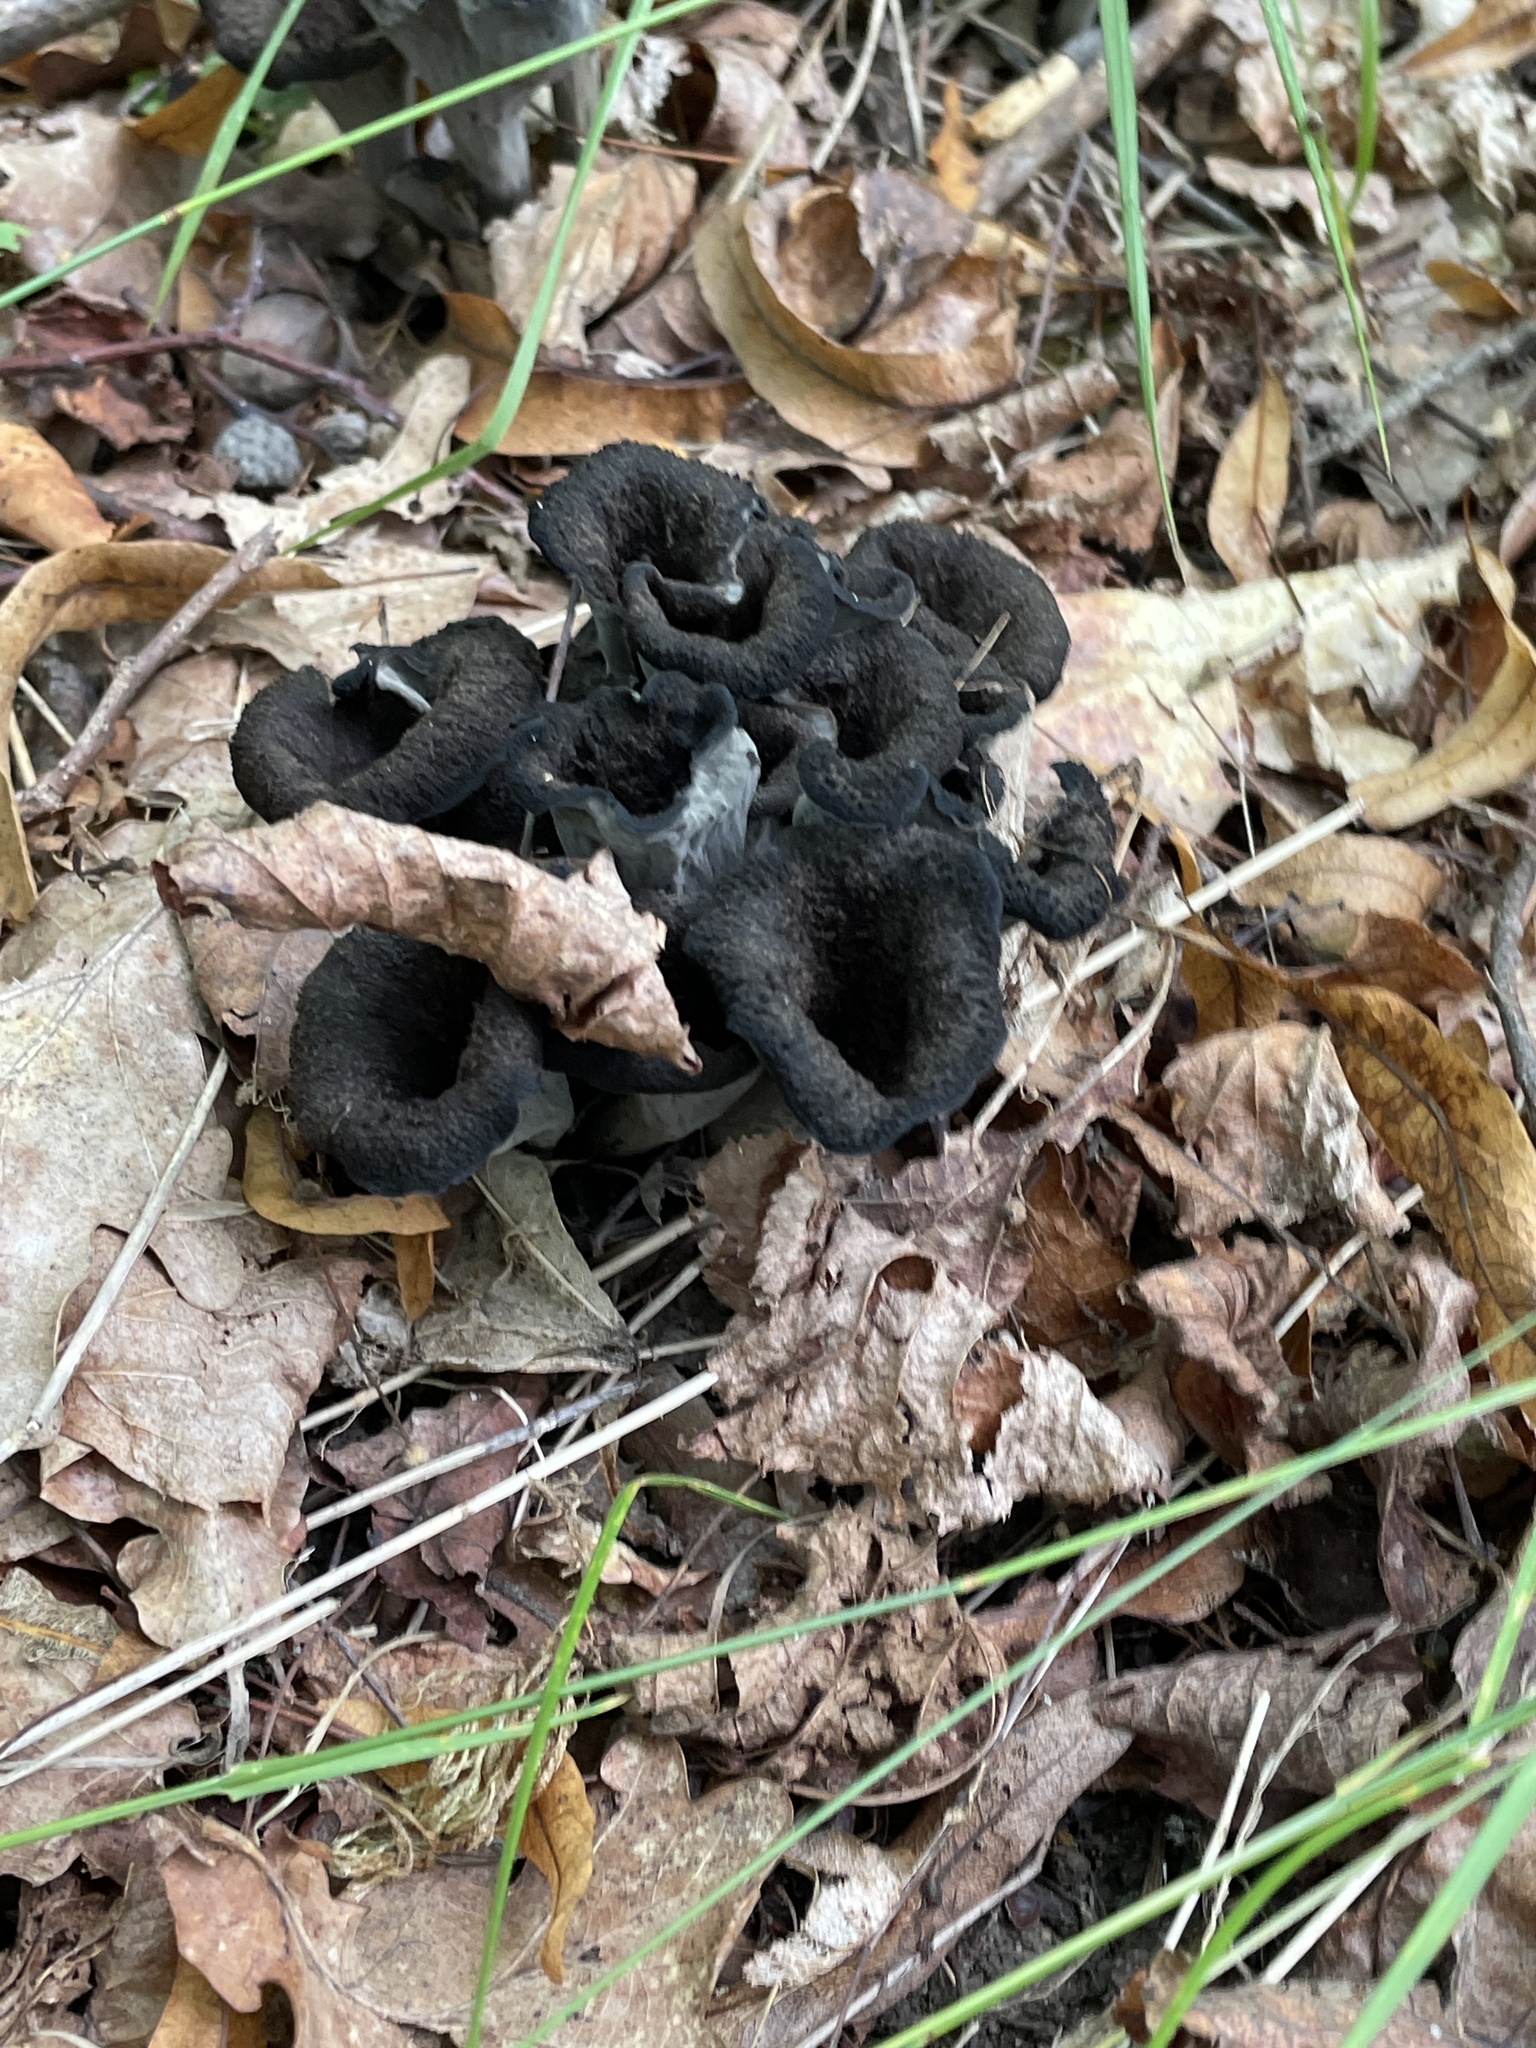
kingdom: Fungi
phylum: Basidiomycota
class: Agaricomycetes
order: Cantharellales
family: Hydnaceae
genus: Craterellus
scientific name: Craterellus cornucopioides
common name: Horn of plenty
